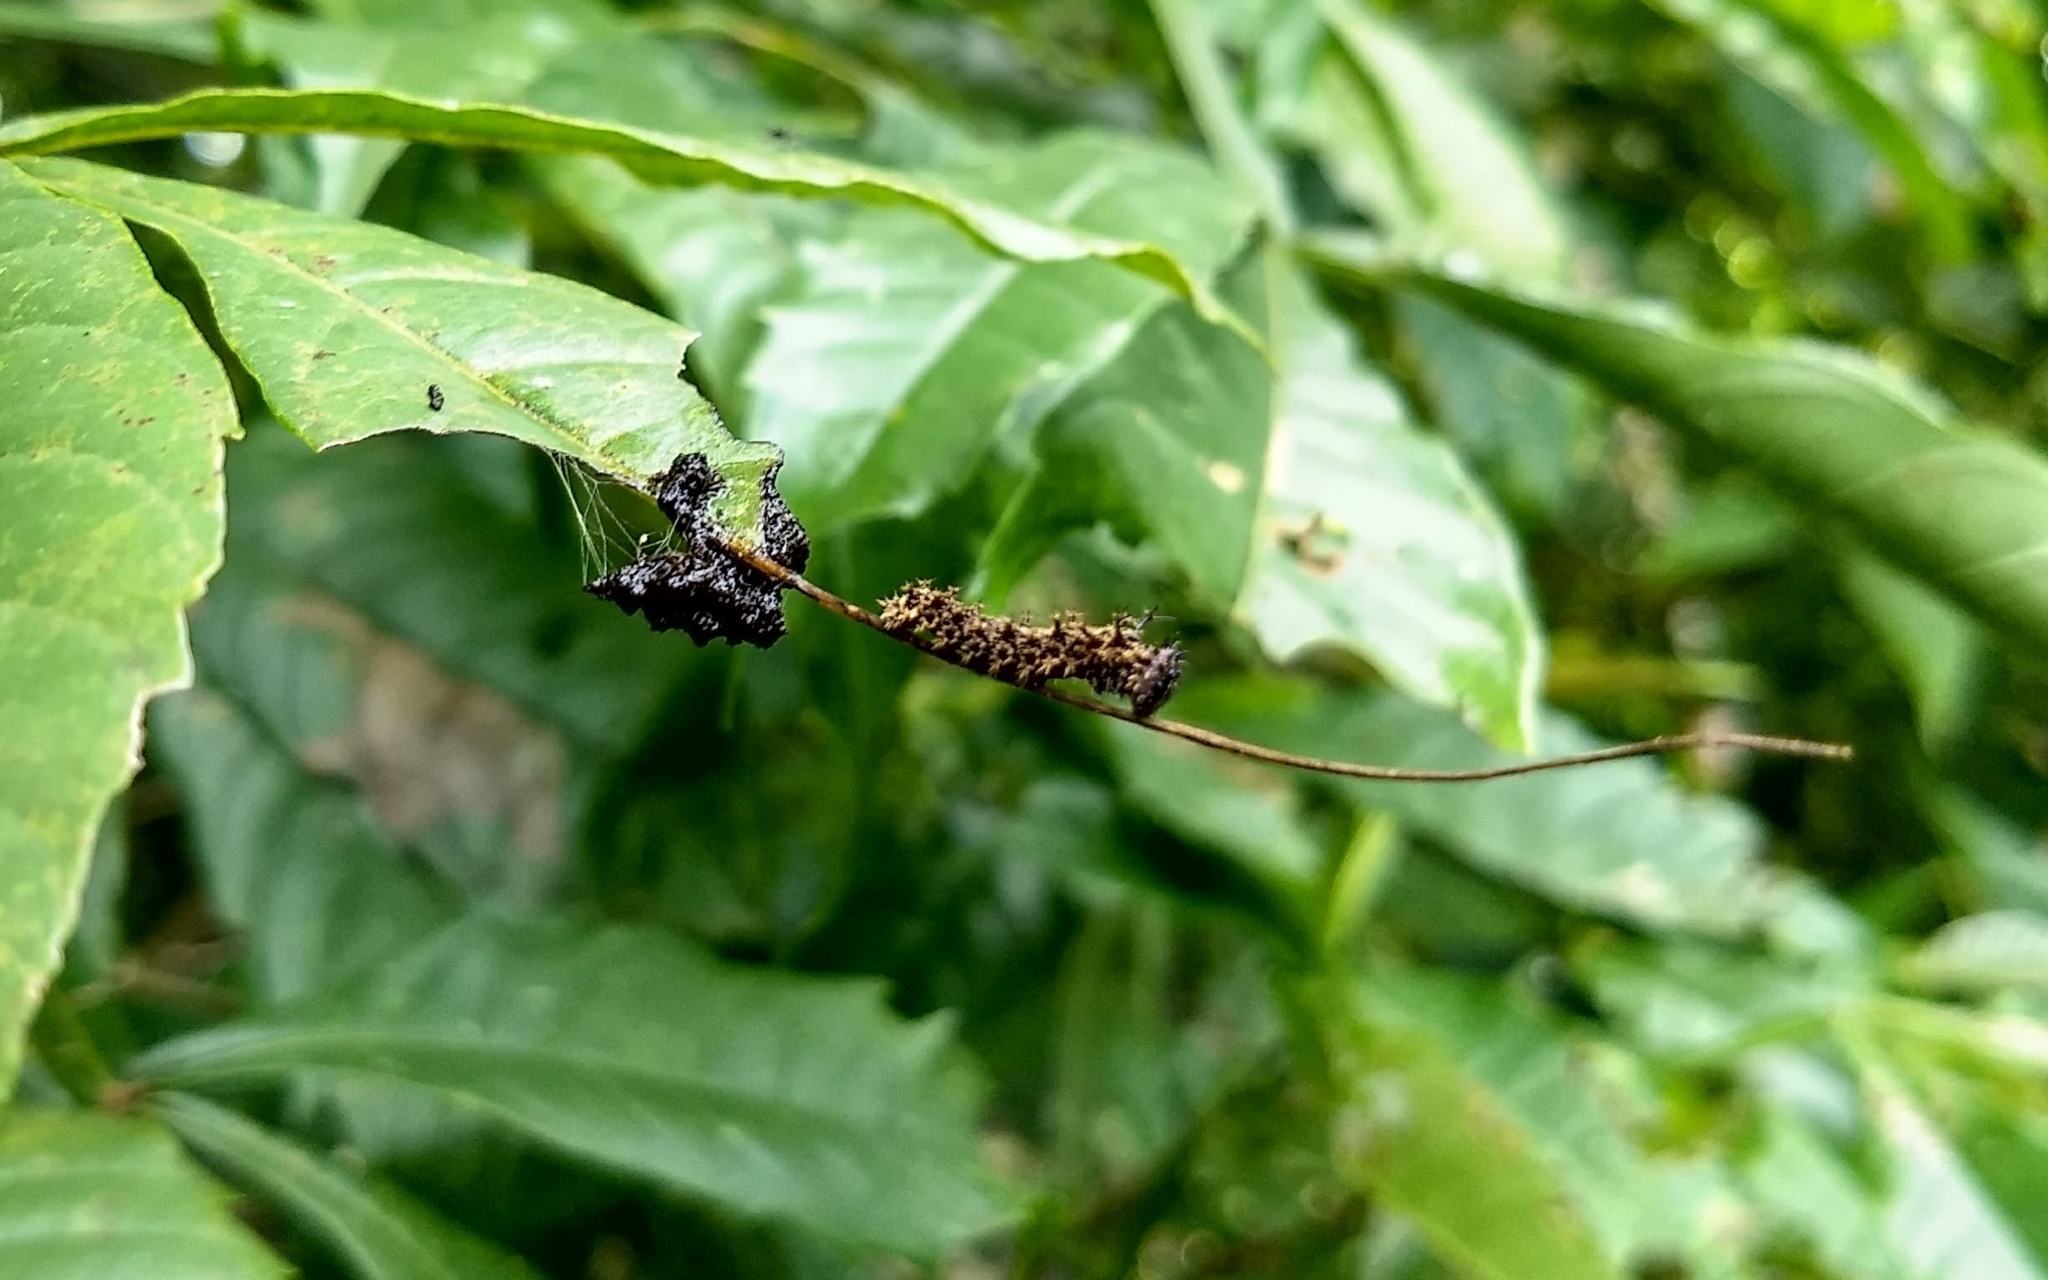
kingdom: Animalia
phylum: Arthropoda
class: Insecta
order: Lepidoptera
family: Nymphalidae
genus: Limenitis
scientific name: Limenitis Moduza procris
